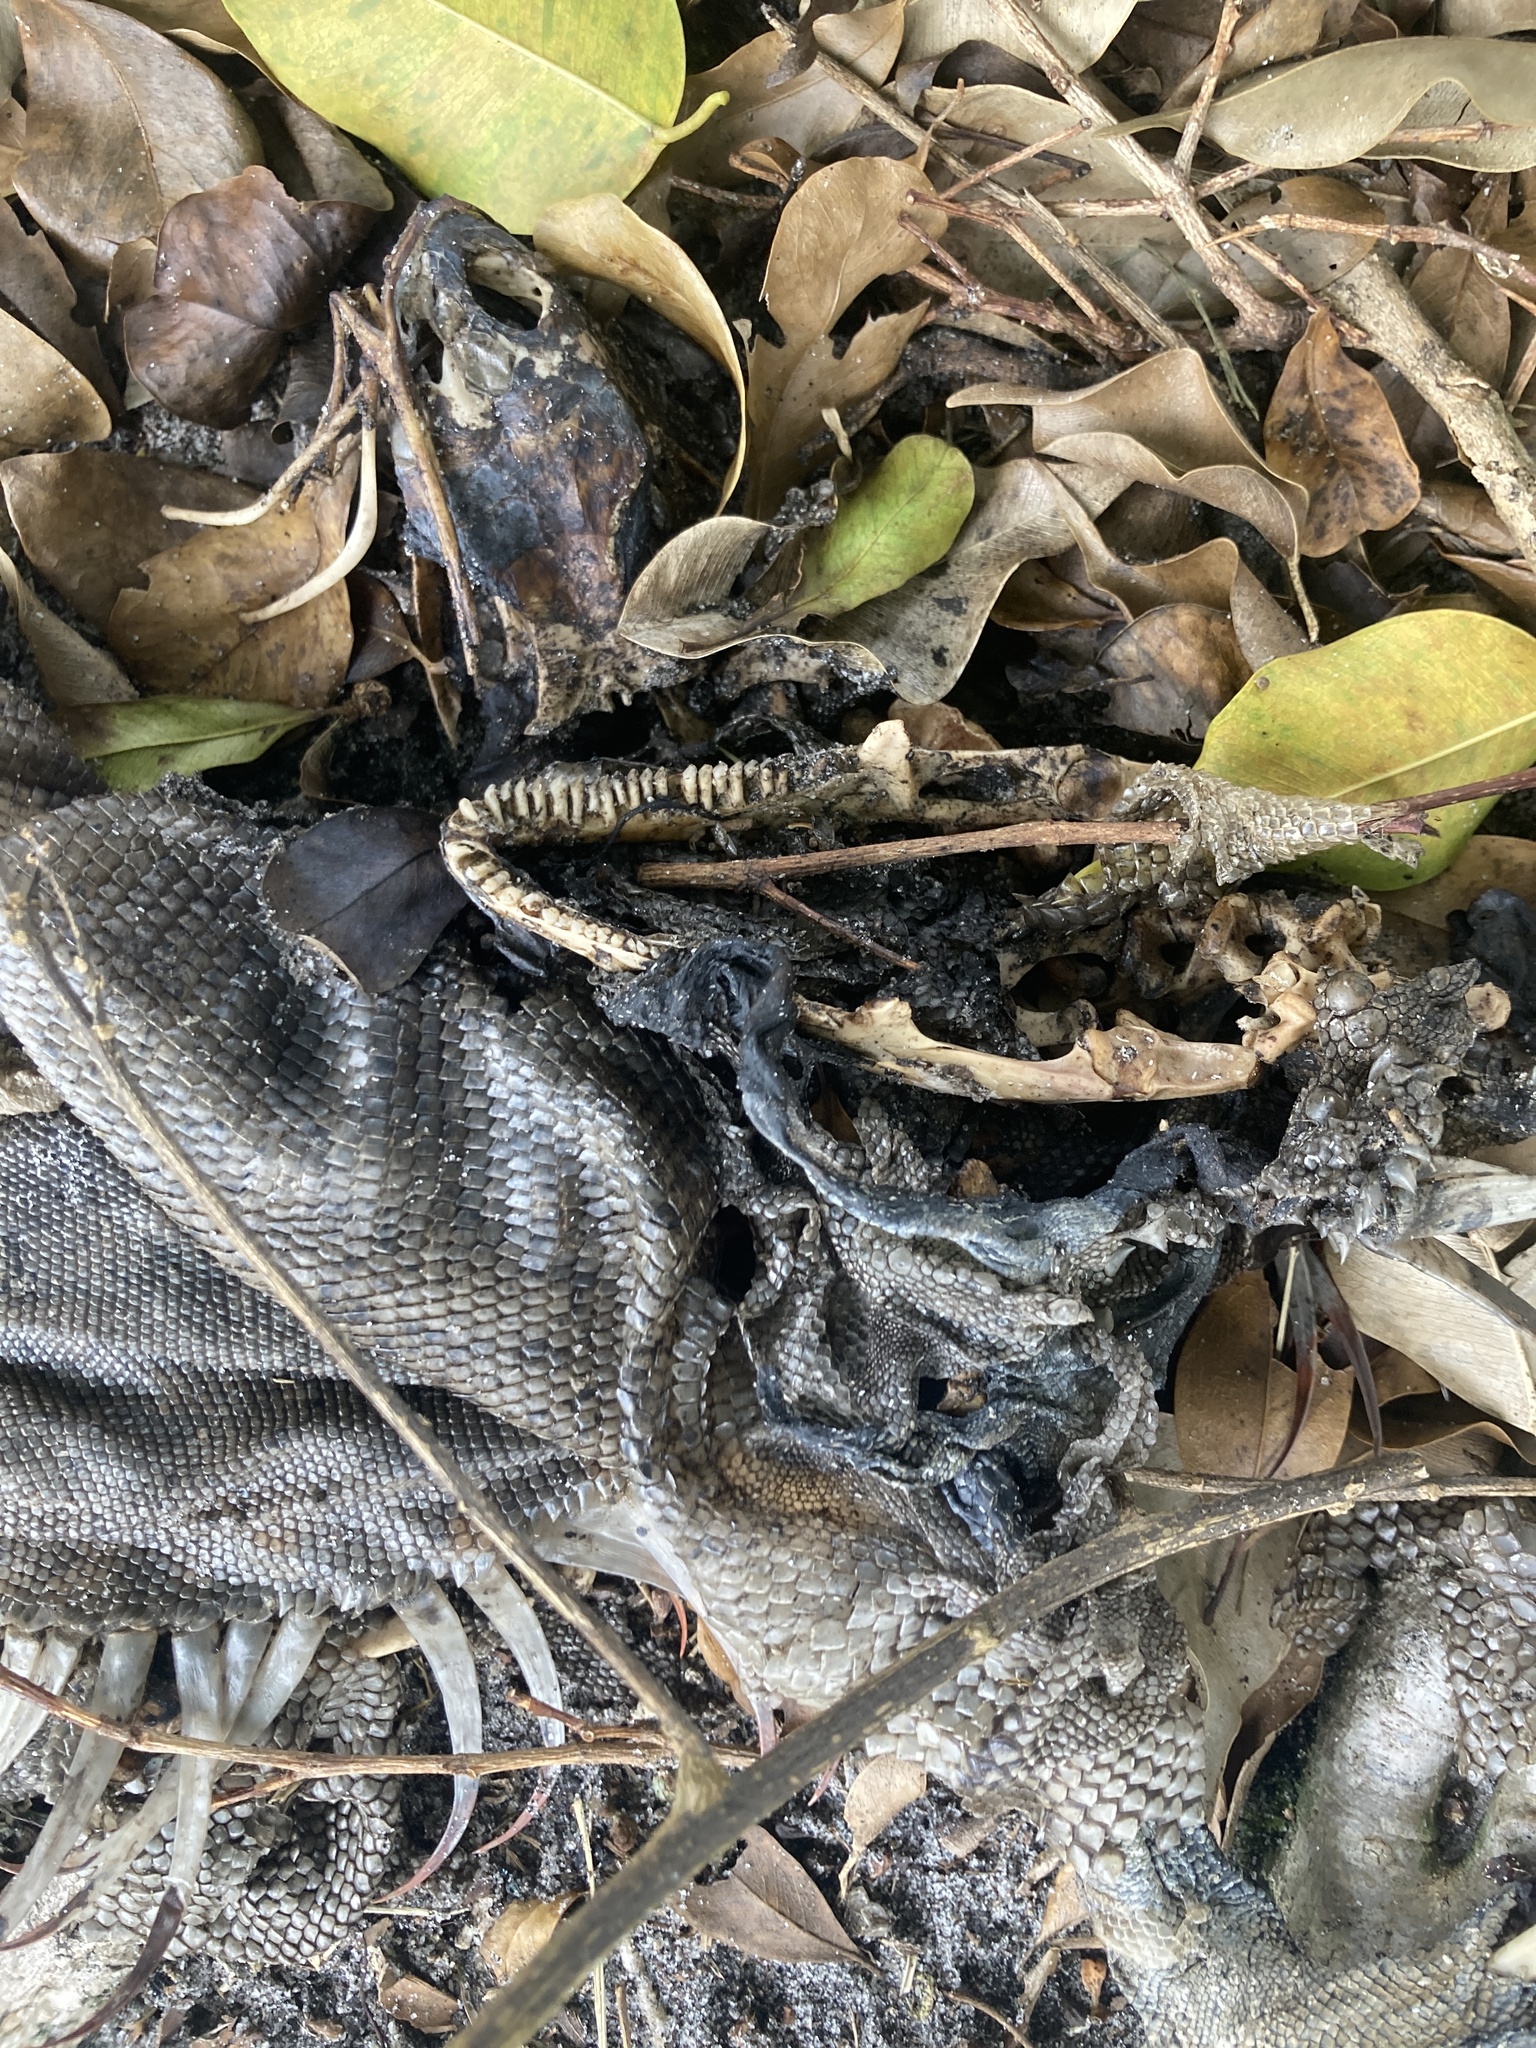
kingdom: Animalia
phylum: Chordata
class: Squamata
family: Iguanidae
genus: Iguana
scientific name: Iguana iguana
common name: Green iguana
